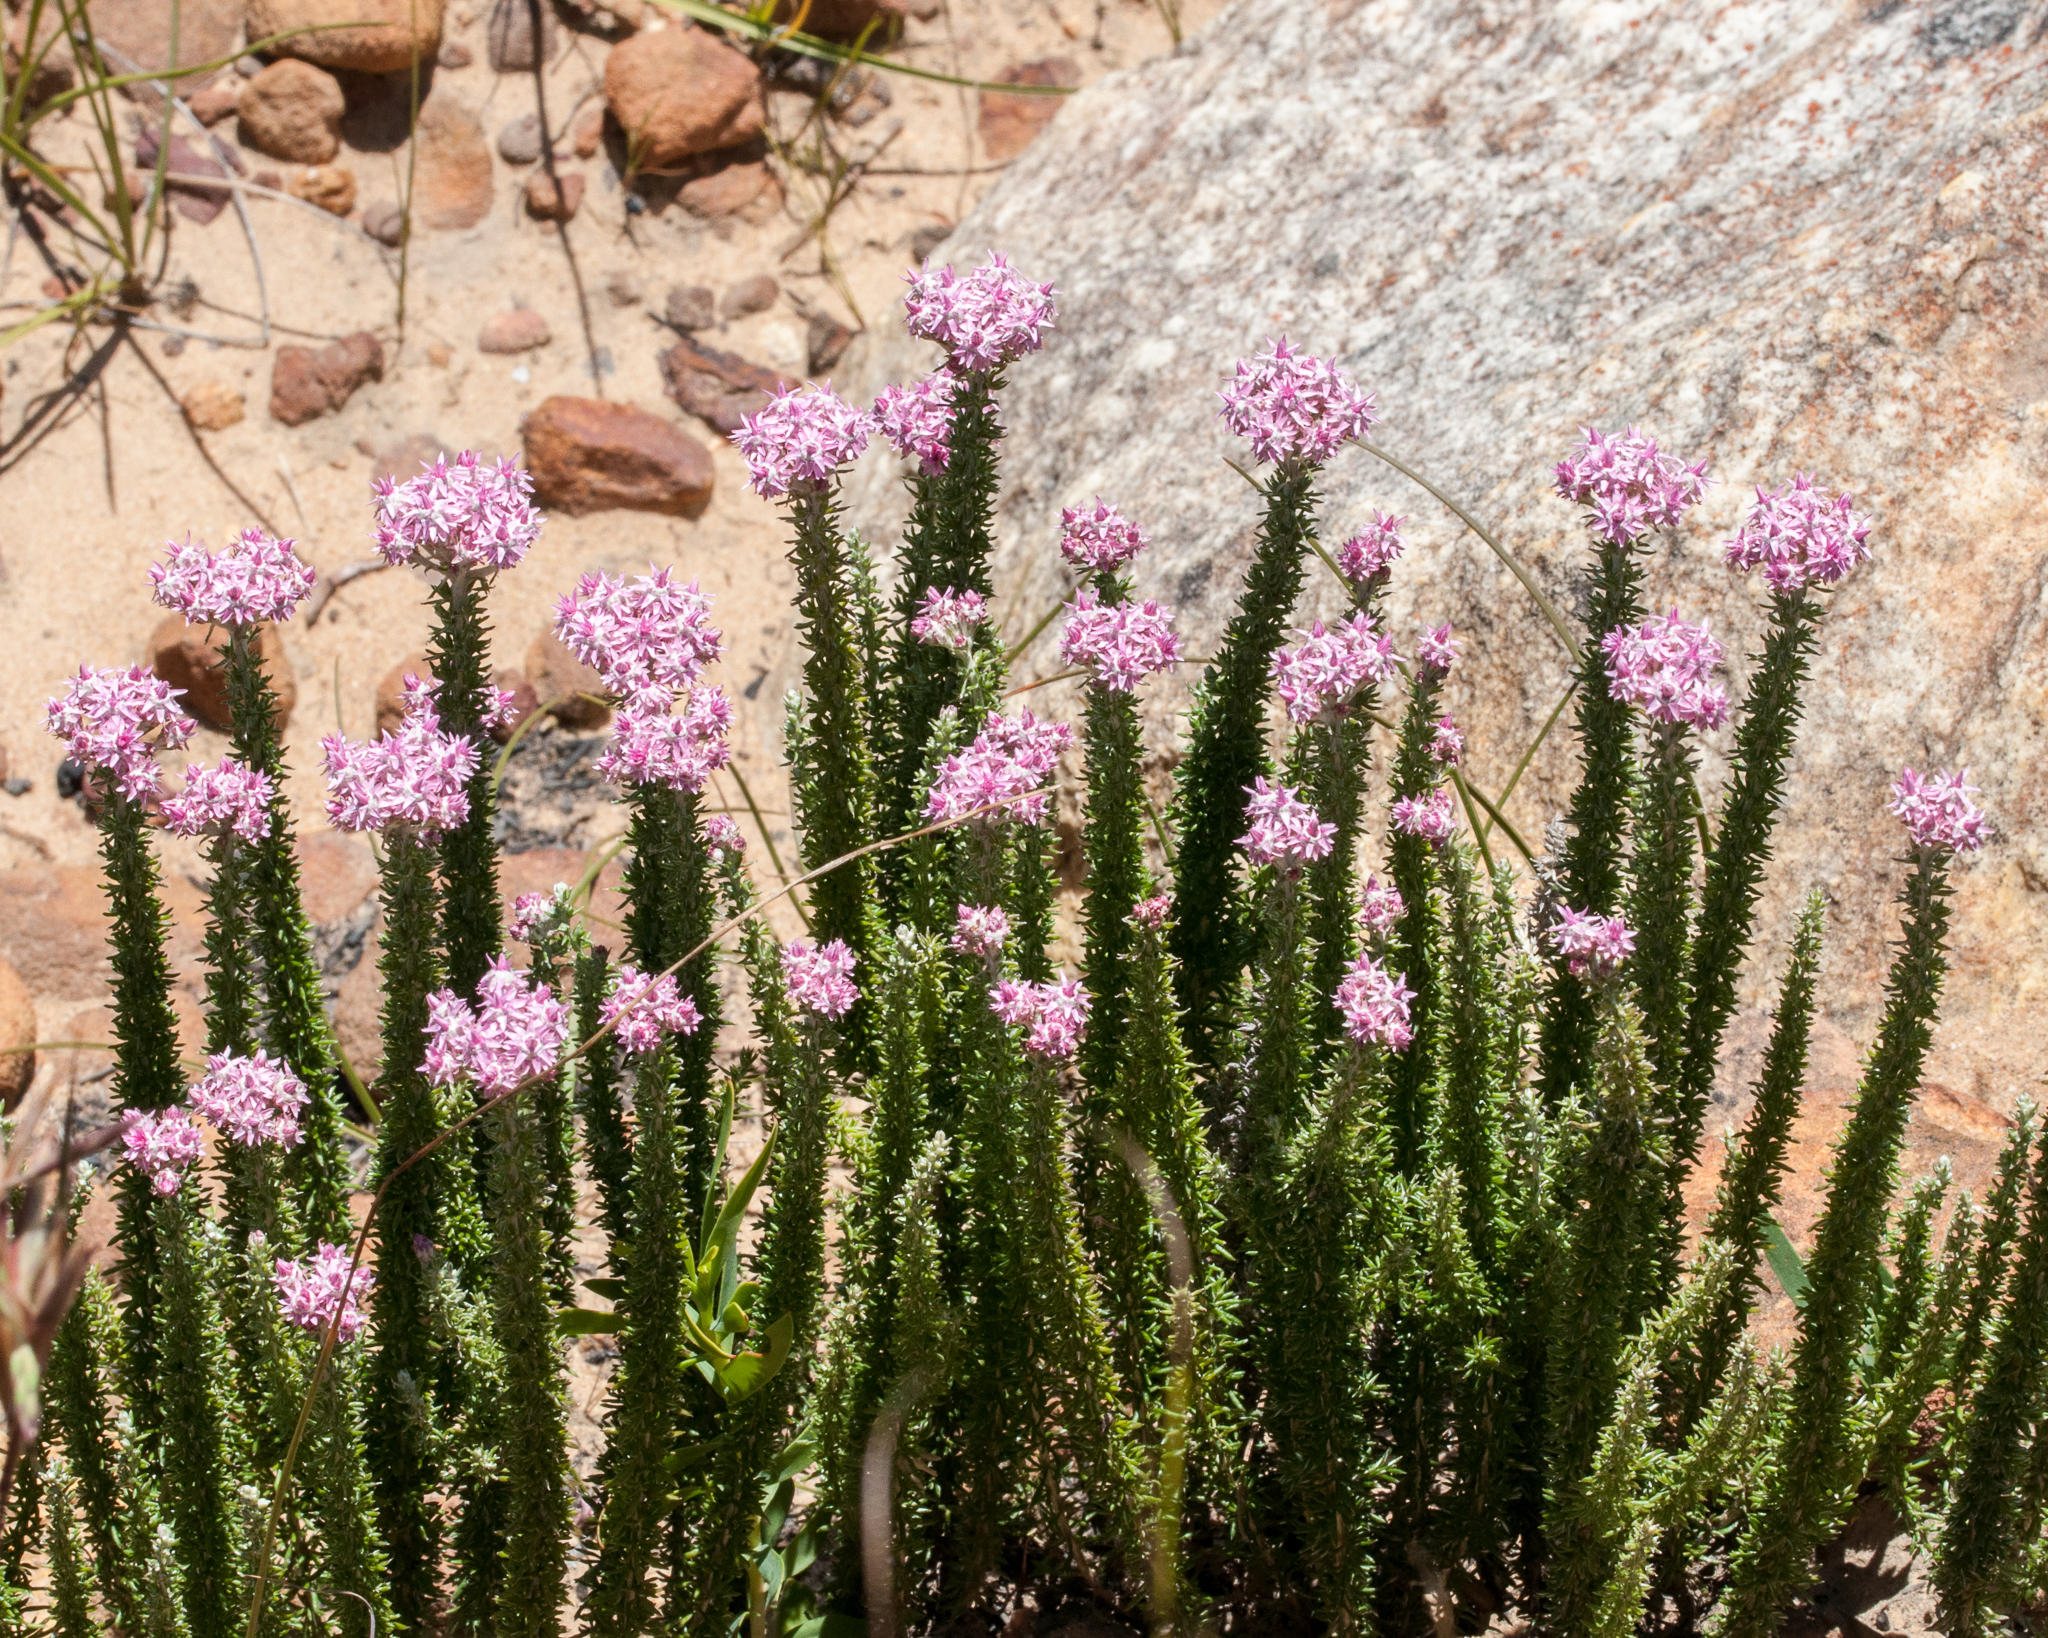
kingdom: Plantae
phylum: Tracheophyta
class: Magnoliopsida
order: Asterales
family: Asteraceae
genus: Lachnospermum
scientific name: Lachnospermum umbellatum
